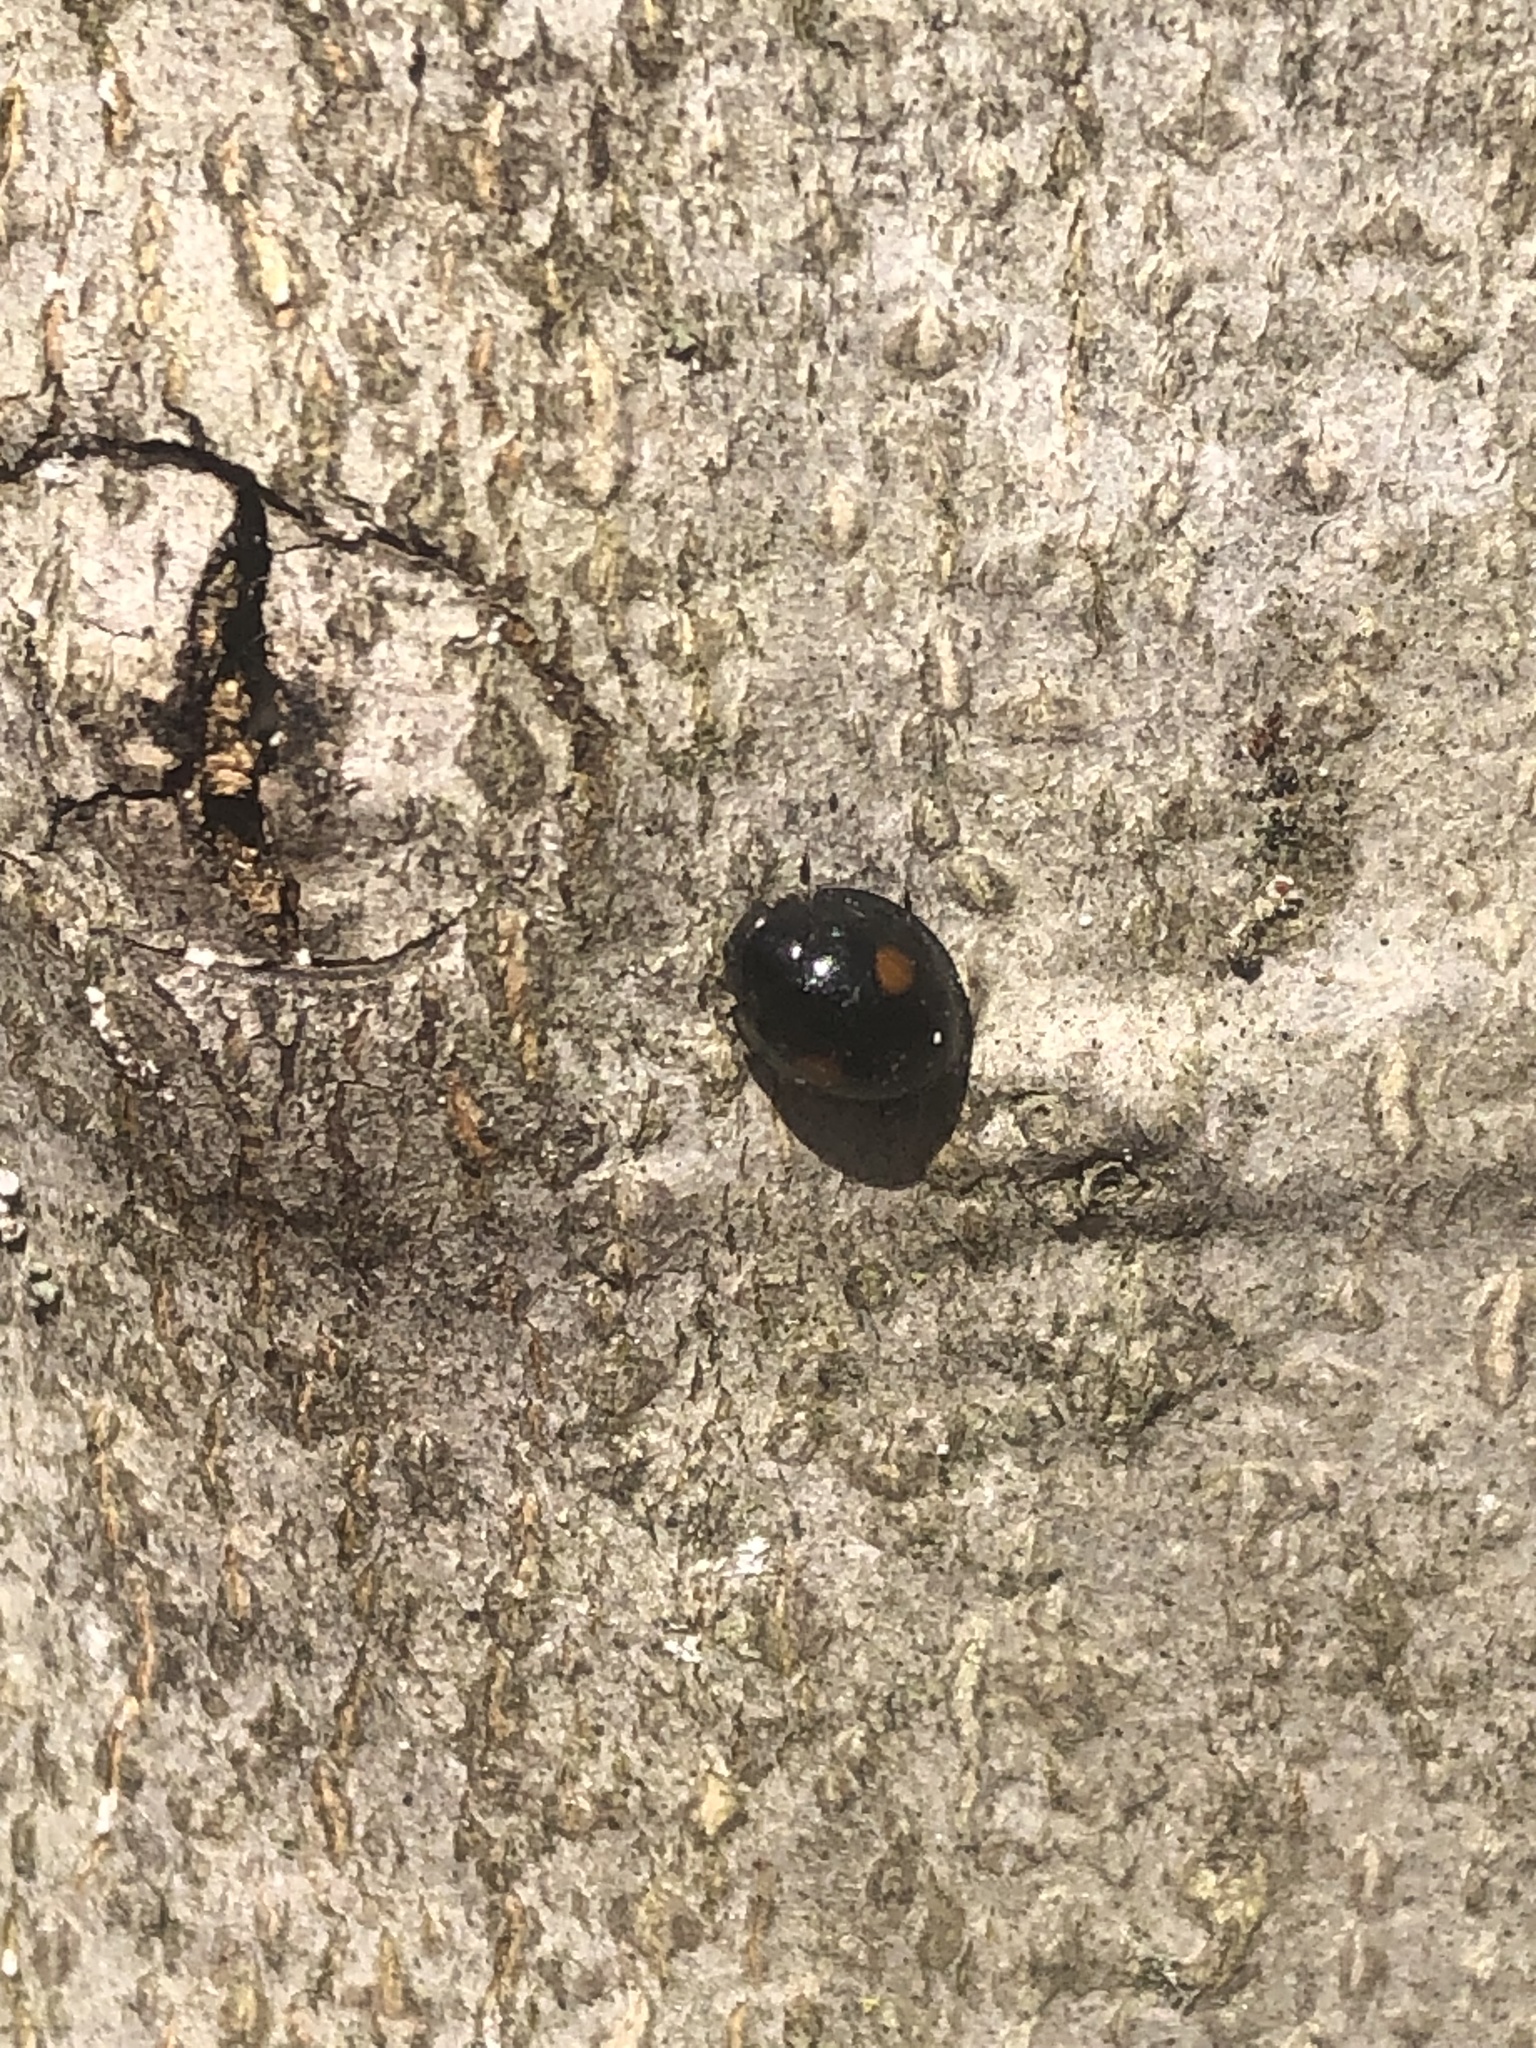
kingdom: Animalia
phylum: Arthropoda
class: Insecta
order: Coleoptera
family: Coccinellidae
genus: Chilocorus
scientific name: Chilocorus stigma
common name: Twicestabbed lady beetle
